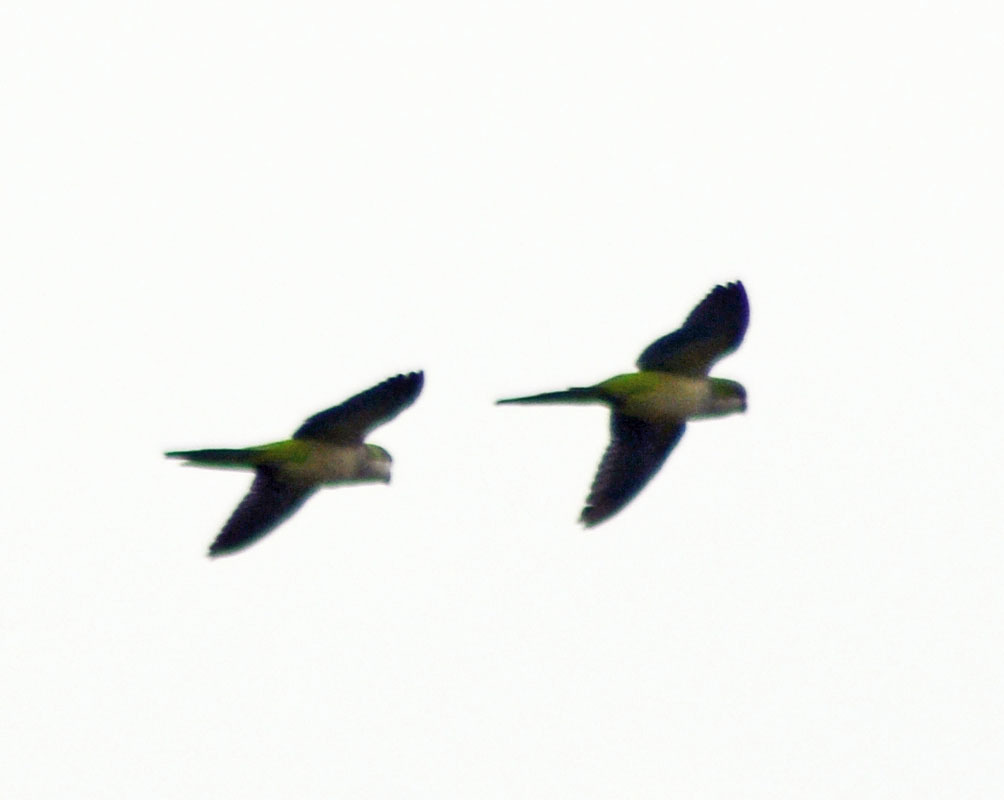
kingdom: Animalia
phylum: Chordata
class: Aves
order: Psittaciformes
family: Psittacidae
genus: Myiopsitta
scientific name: Myiopsitta monachus
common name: Monk parakeet
